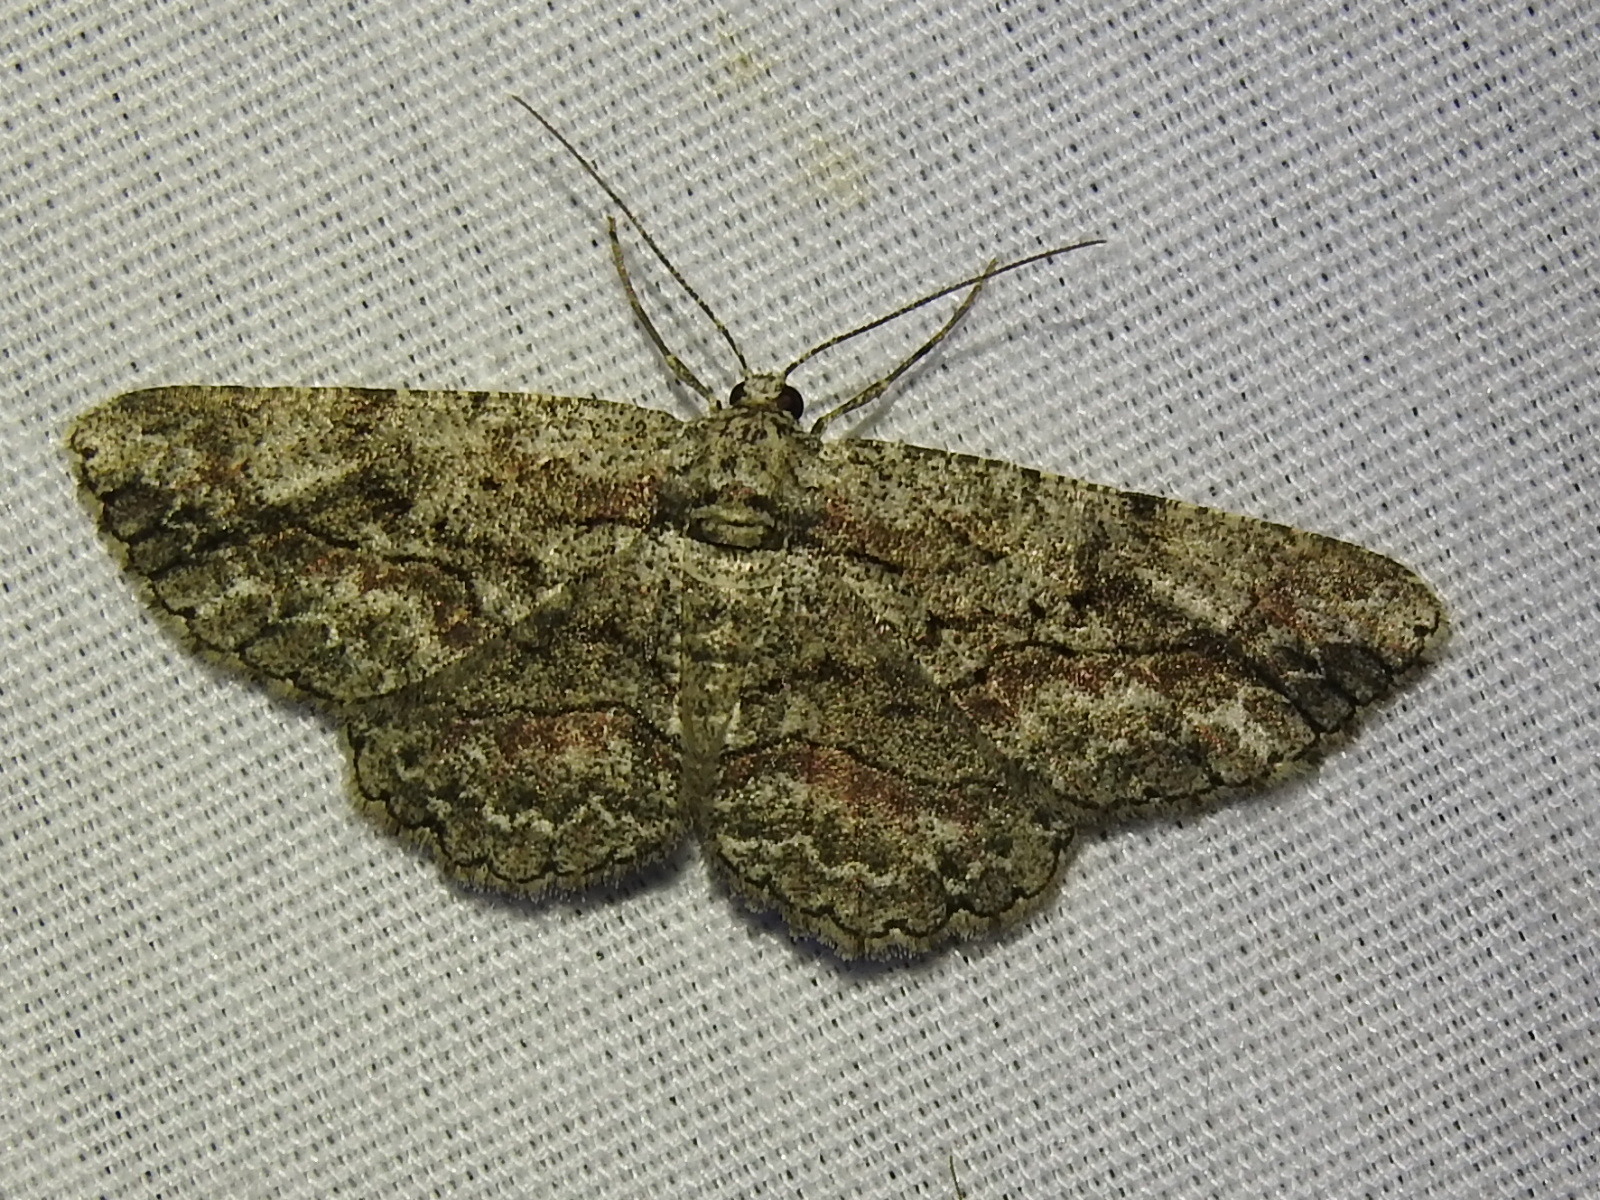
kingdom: Animalia
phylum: Arthropoda
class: Insecta
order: Lepidoptera
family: Geometridae
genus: Iridopsis
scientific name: Iridopsis defectaria
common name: Brown-shaded gray
